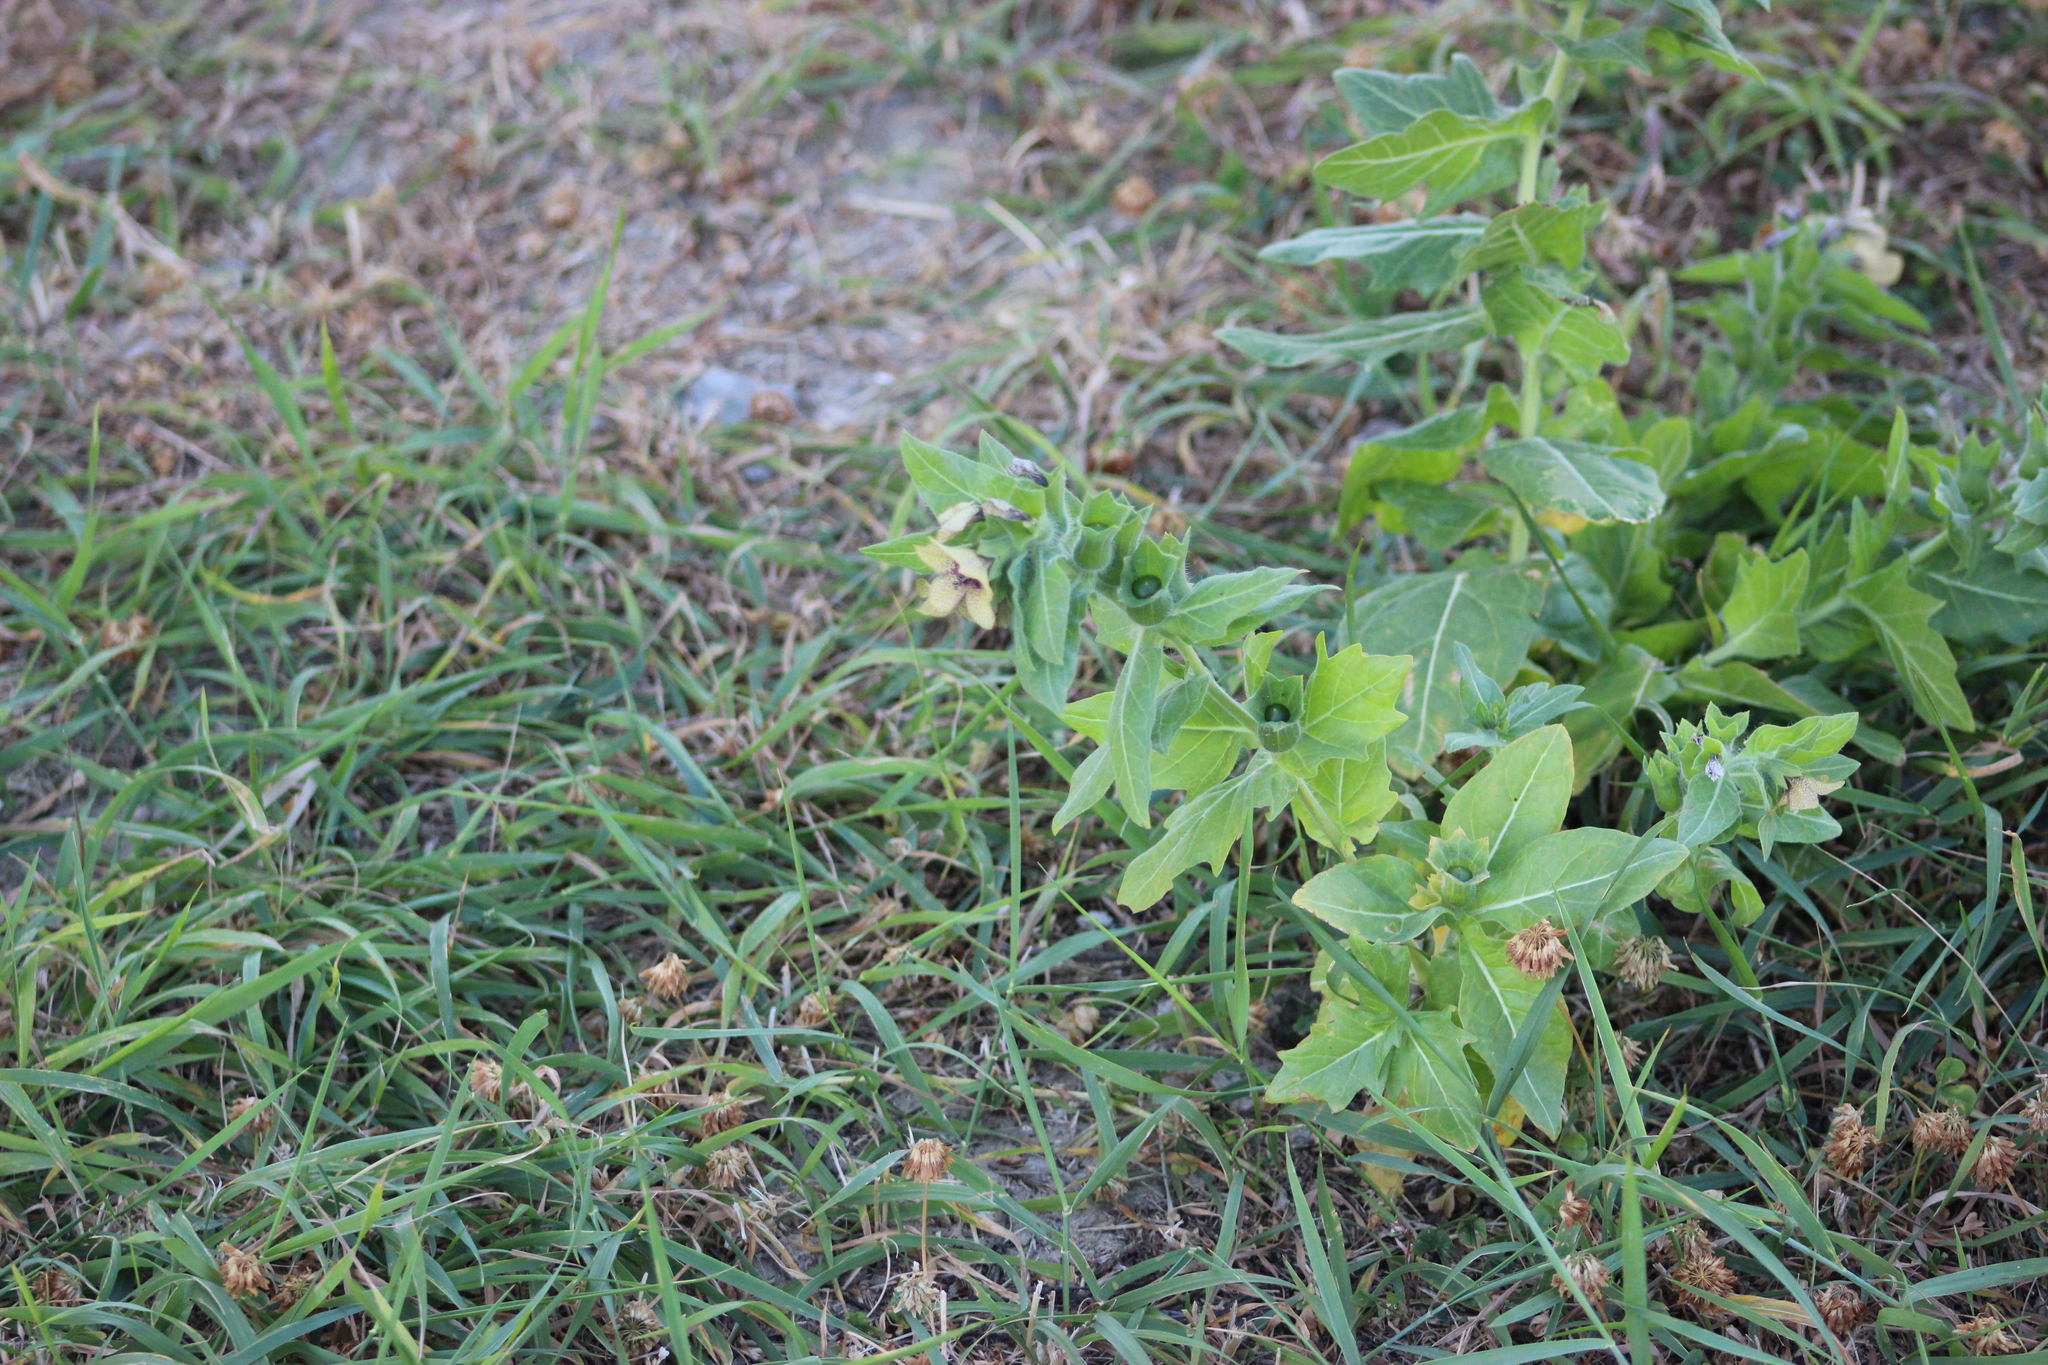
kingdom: Plantae
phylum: Tracheophyta
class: Magnoliopsida
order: Solanales
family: Solanaceae
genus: Hyoscyamus
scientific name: Hyoscyamus niger
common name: Henbane
